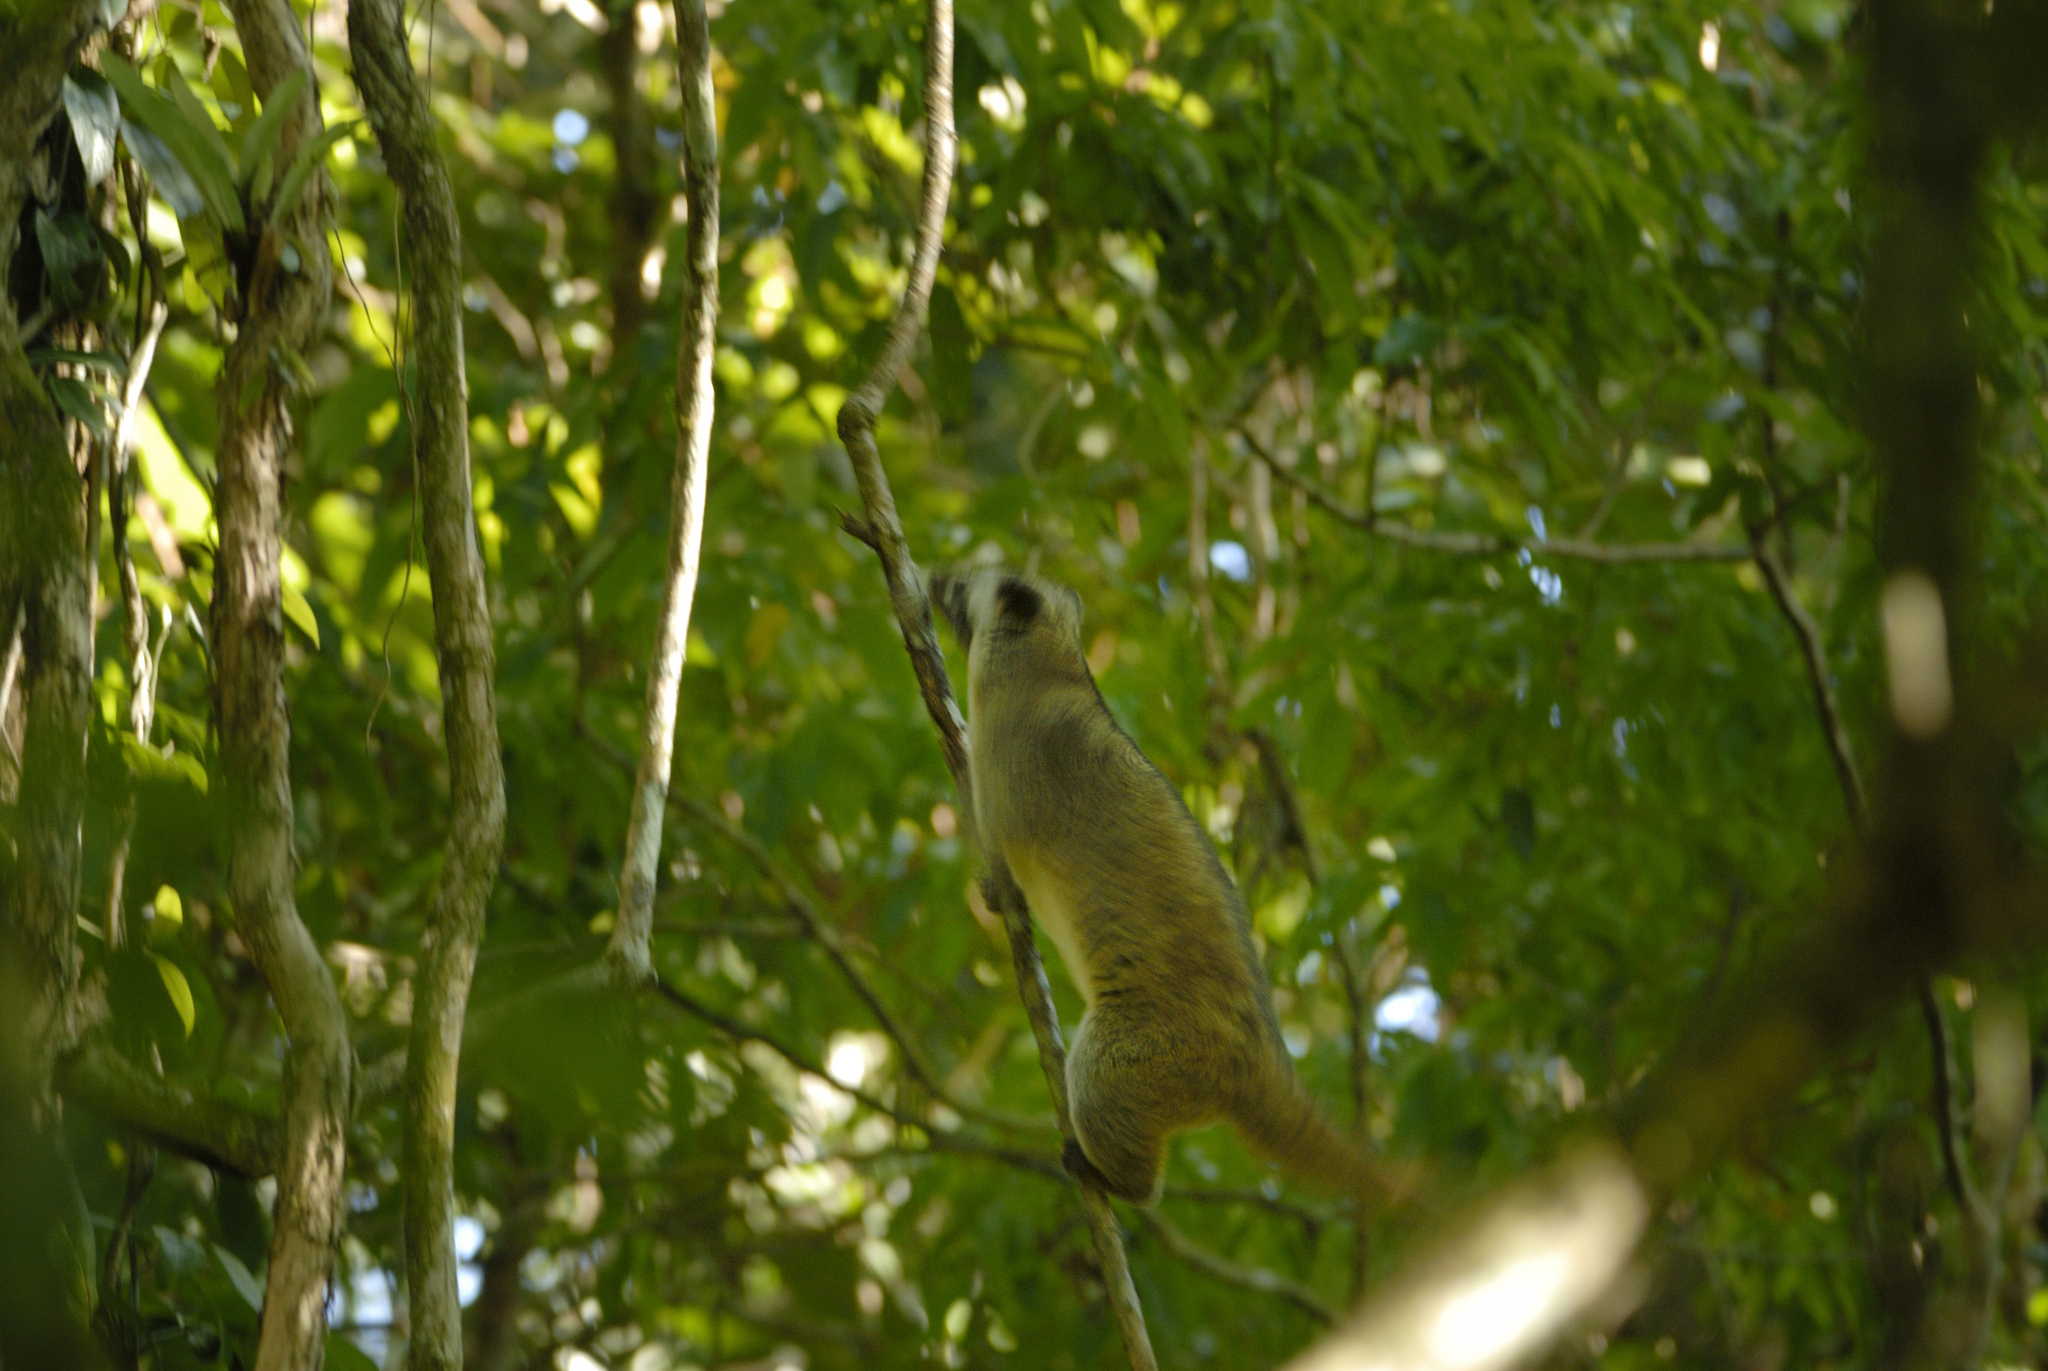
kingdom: Animalia
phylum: Chordata
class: Mammalia
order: Carnivora
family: Viverridae
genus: Paguma
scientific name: Paguma larvata
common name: Masked palm civet
